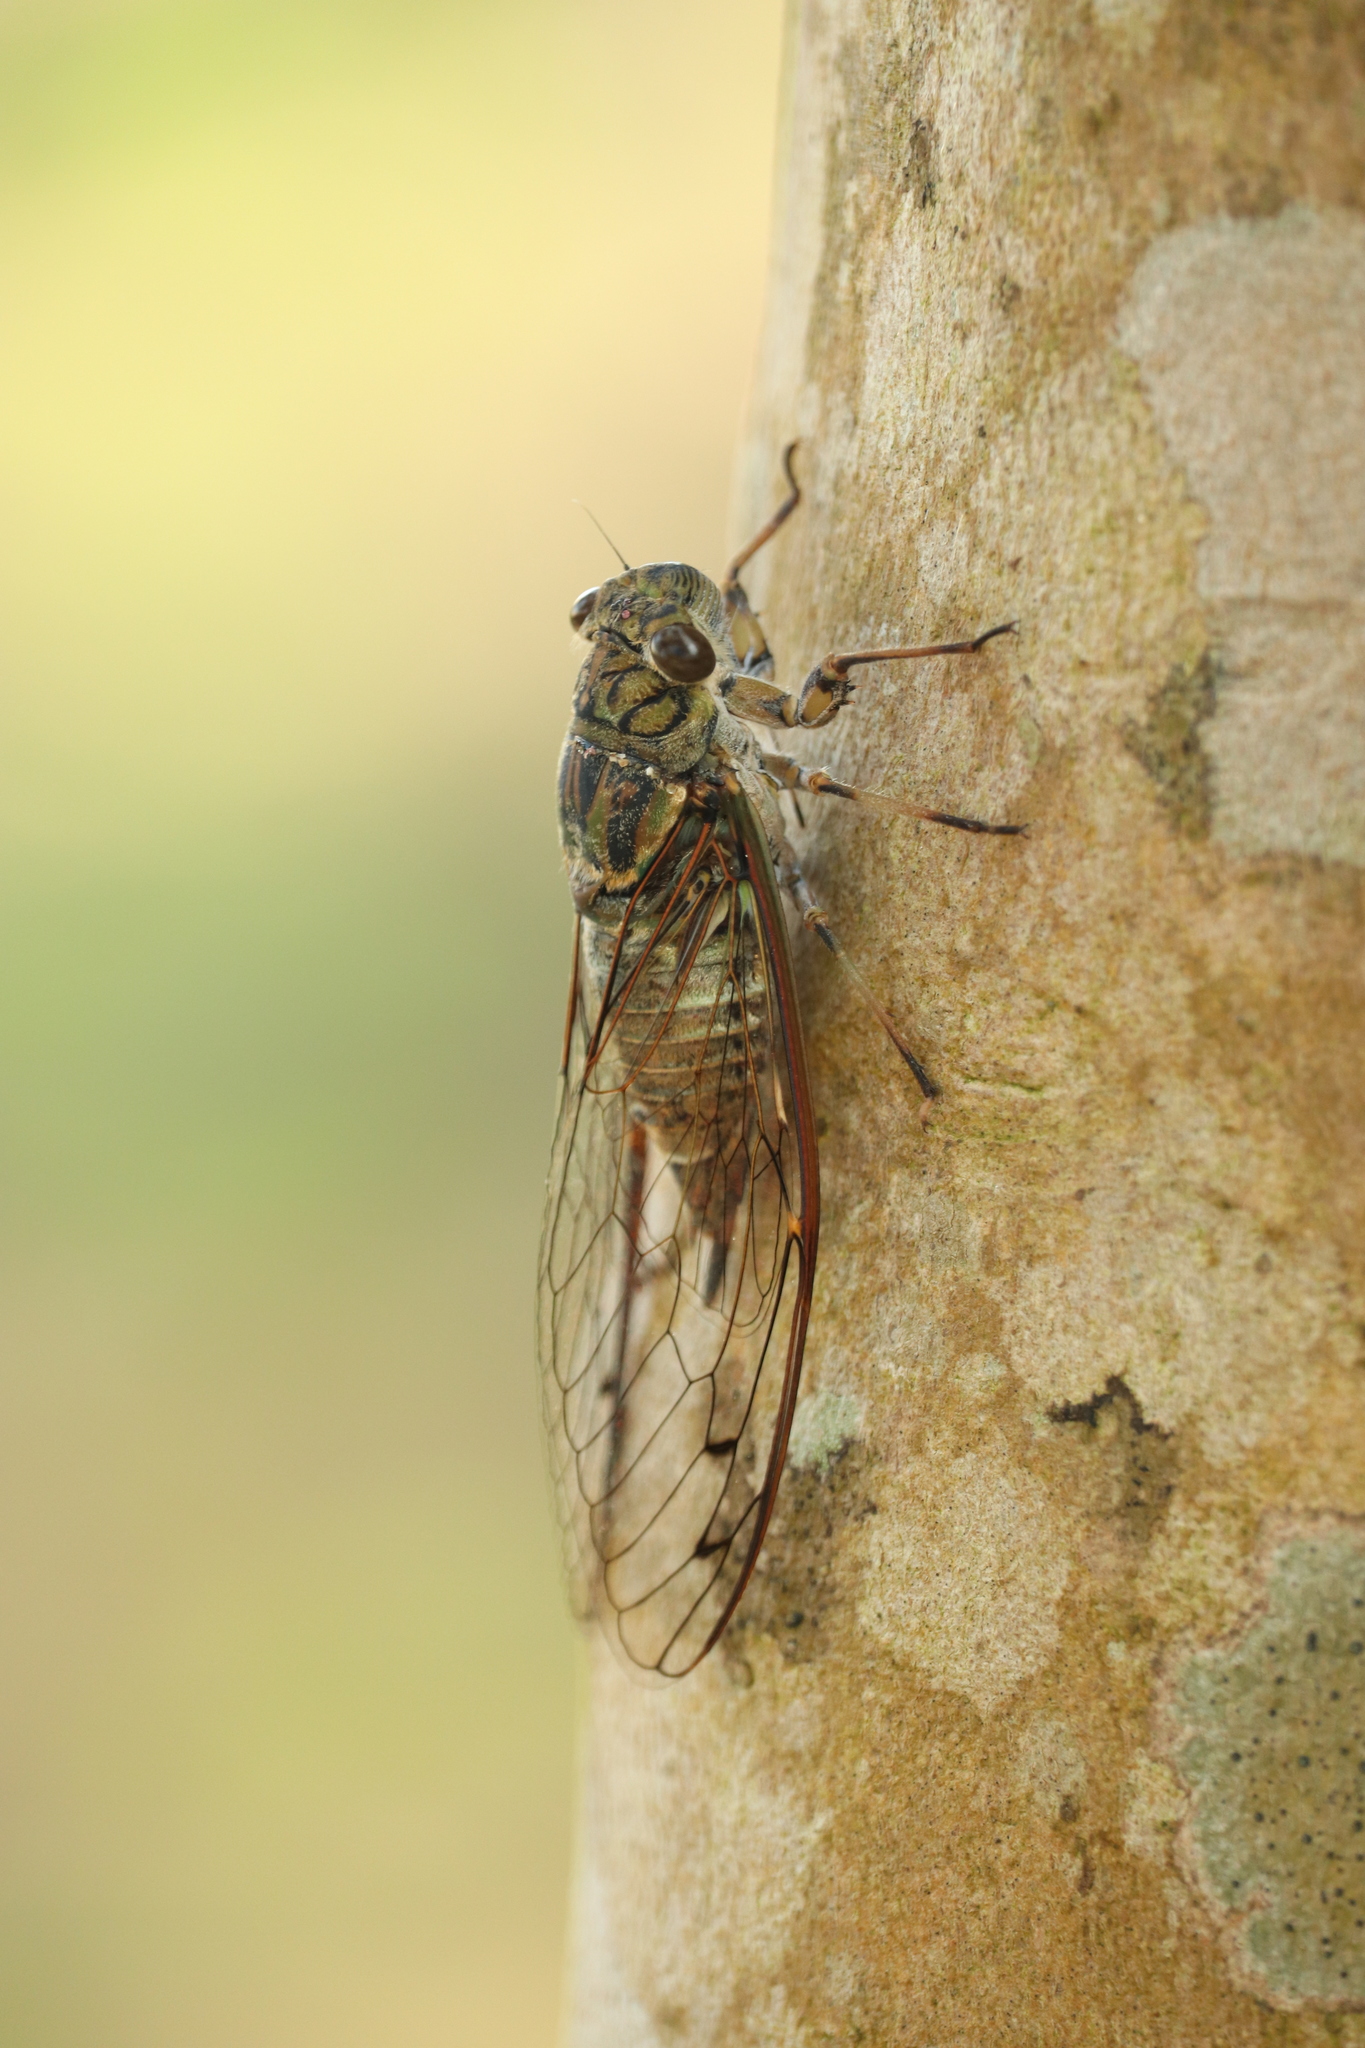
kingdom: Animalia
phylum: Arthropoda
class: Insecta
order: Hemiptera
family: Cicadidae
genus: Meimuna
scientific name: Meimuna opalifera
